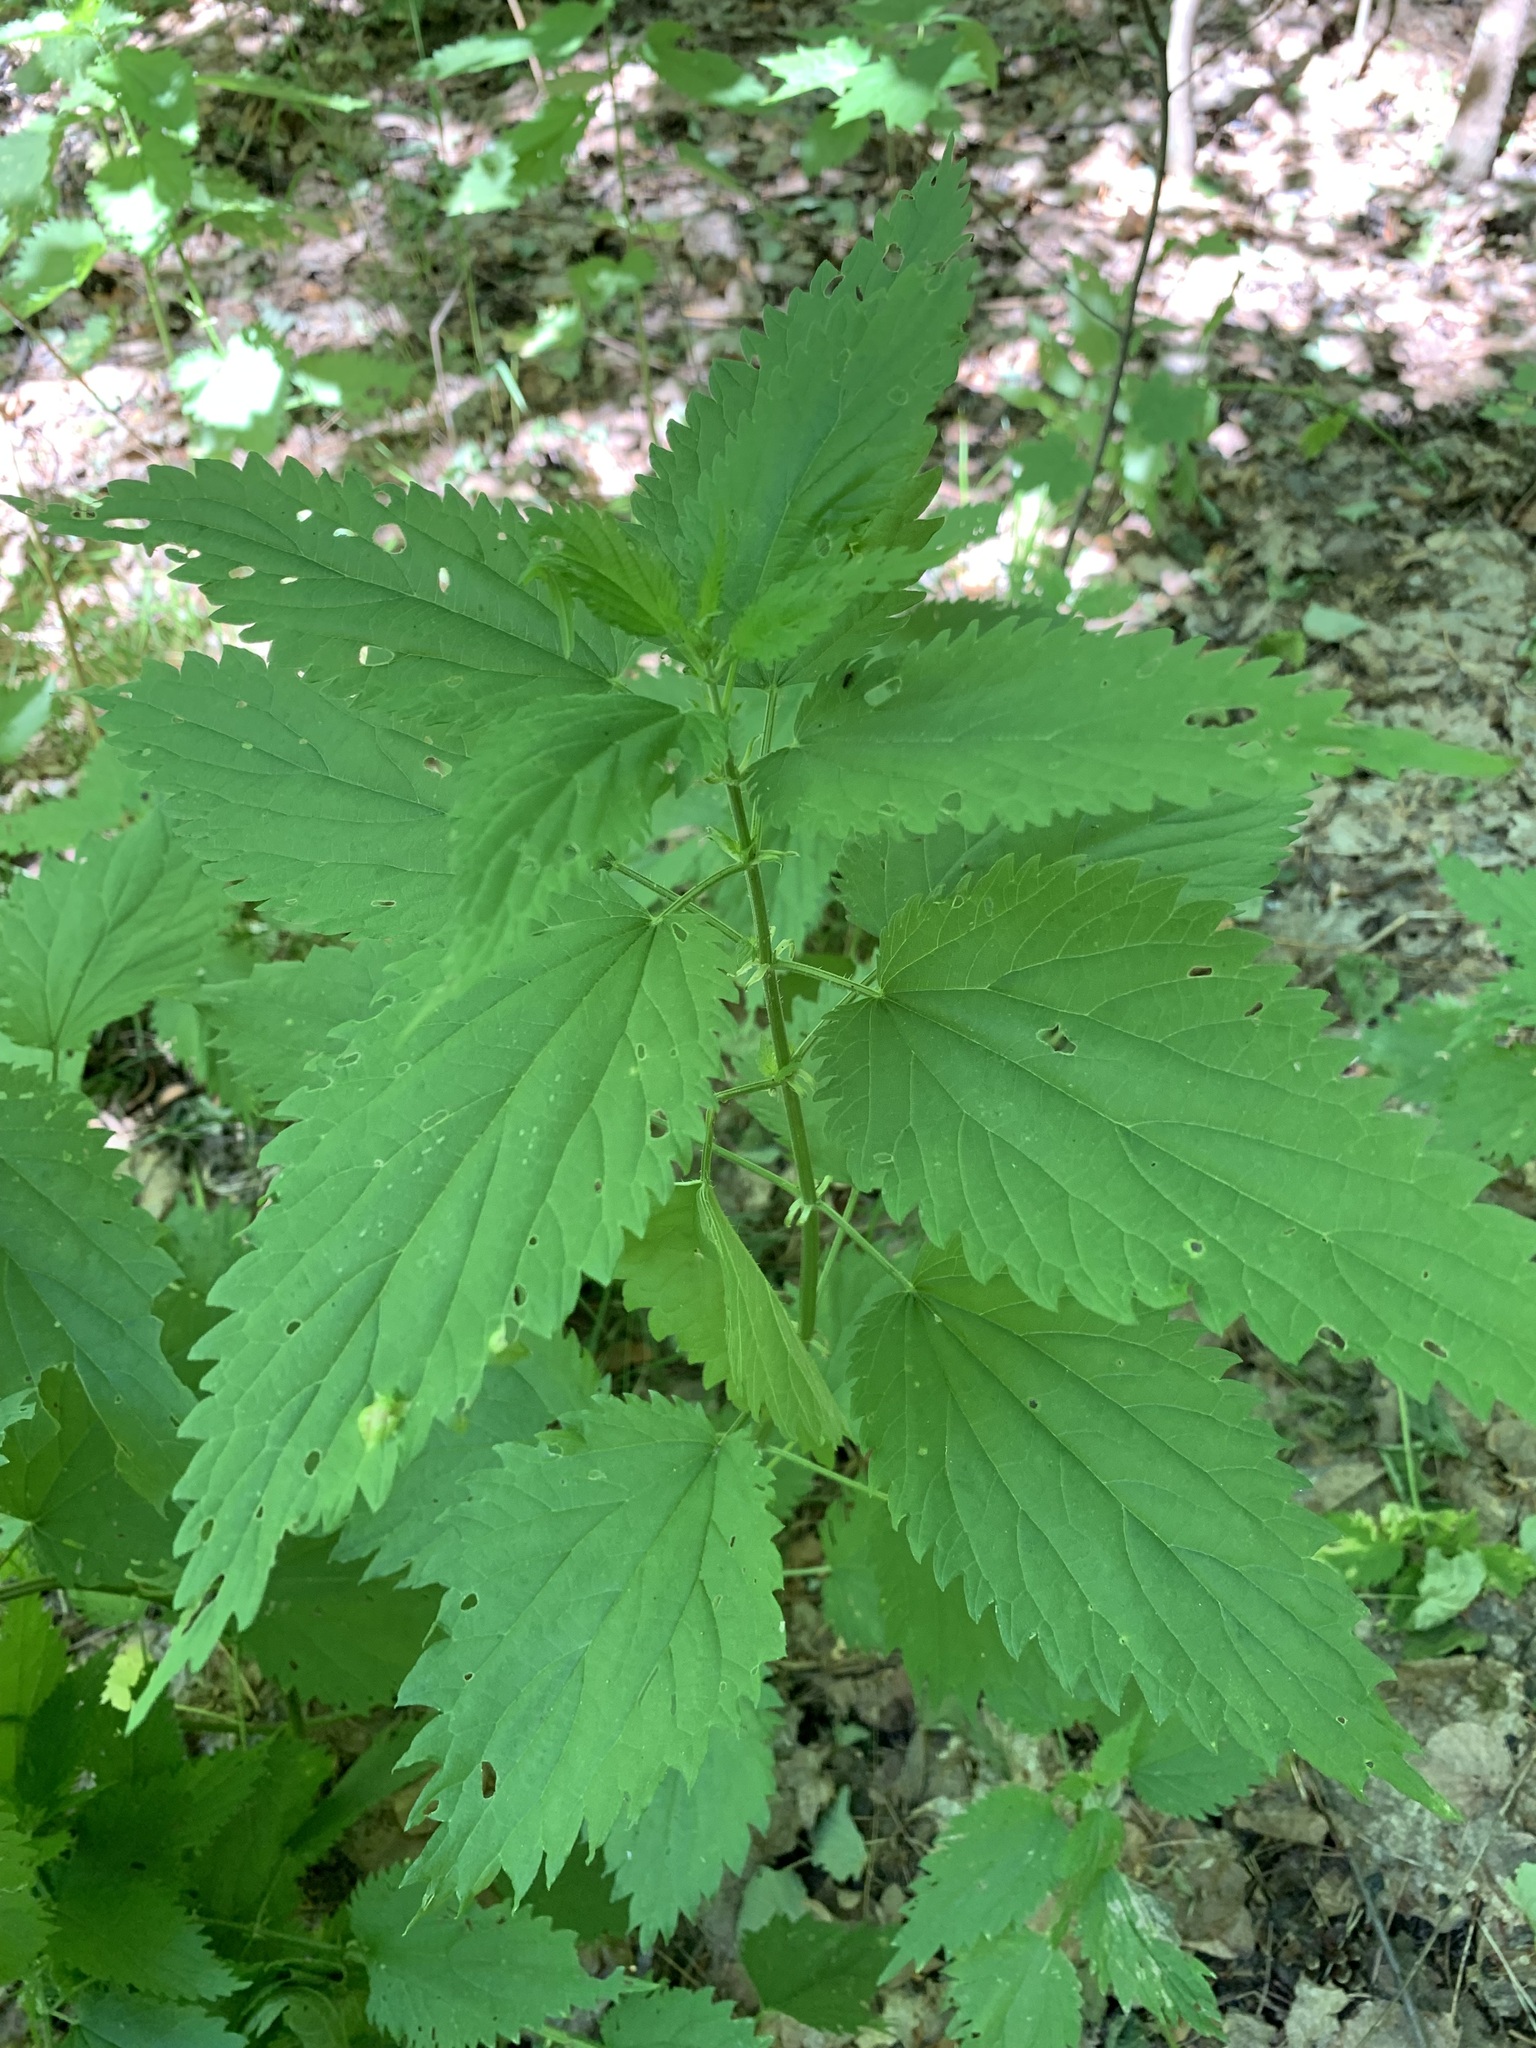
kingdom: Plantae
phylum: Tracheophyta
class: Magnoliopsida
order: Rosales
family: Urticaceae
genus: Urtica
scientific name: Urtica dioica
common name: Common nettle
